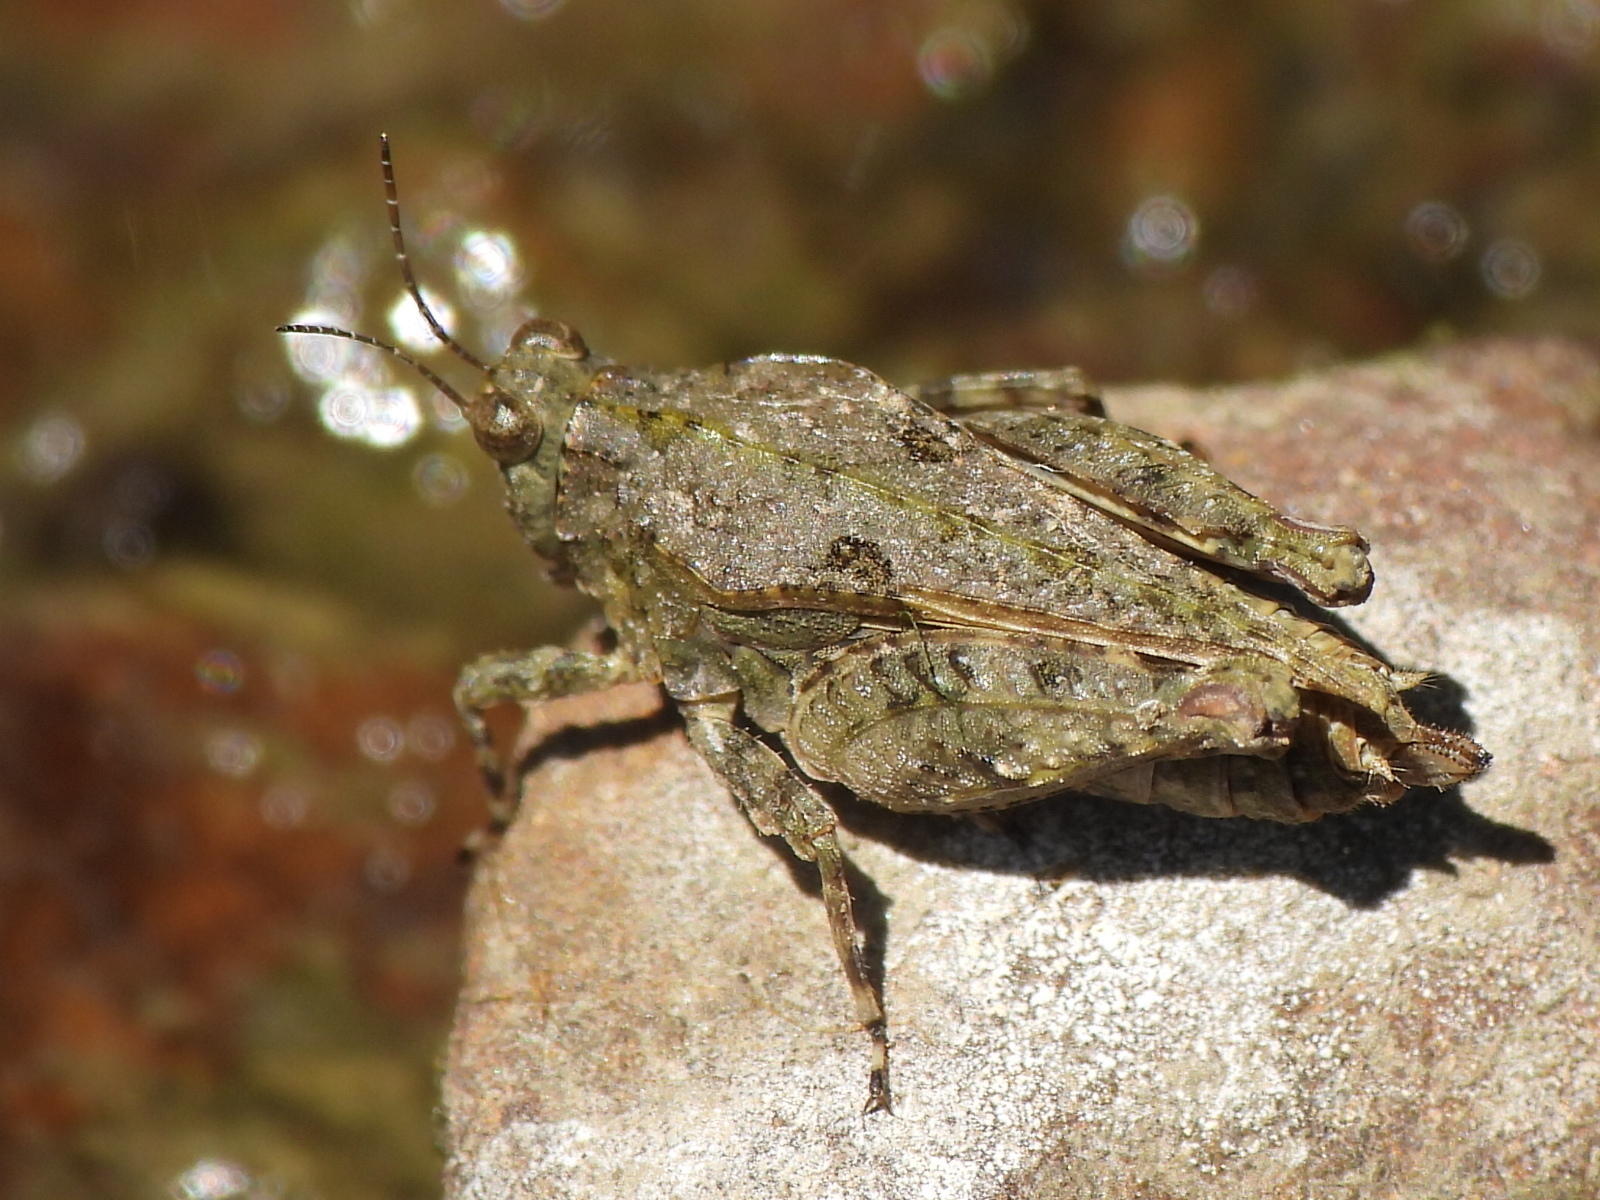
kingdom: Animalia
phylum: Arthropoda
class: Insecta
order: Orthoptera
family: Tetrigidae
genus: Paratettix
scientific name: Paratettix mexicanus
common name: Mexican pygmy grasshopper
